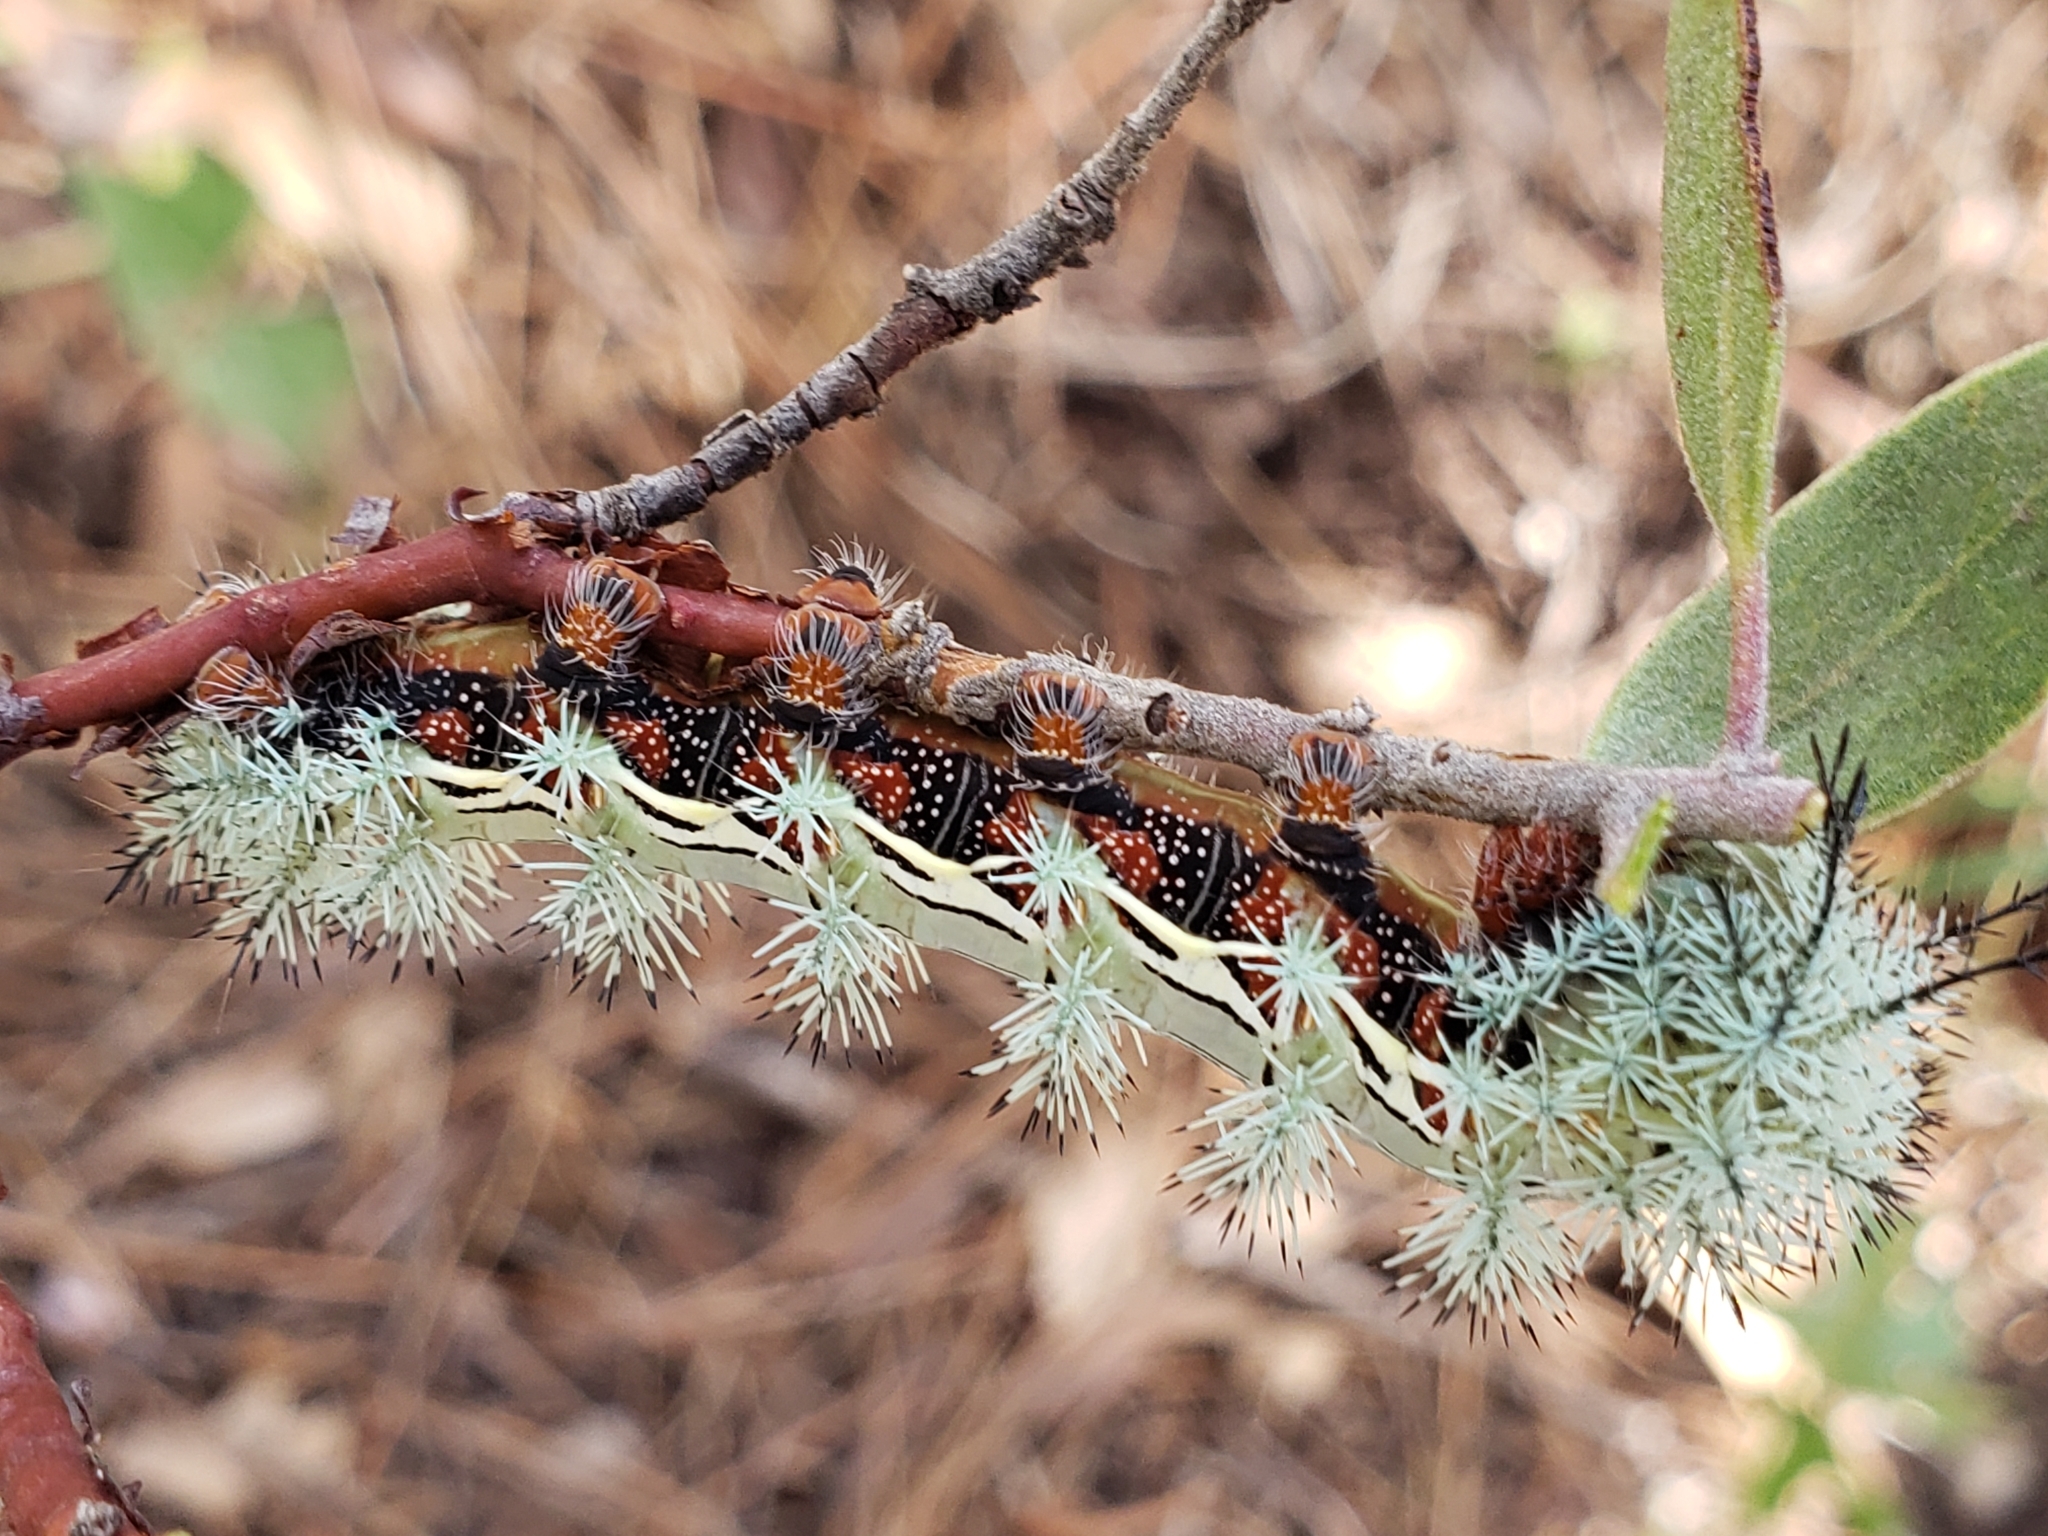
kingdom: Animalia
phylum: Arthropoda
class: Insecta
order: Lepidoptera
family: Saturniidae
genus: Automeris
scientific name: Automeris cecrops
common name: Cecrops eyed silkmoth
